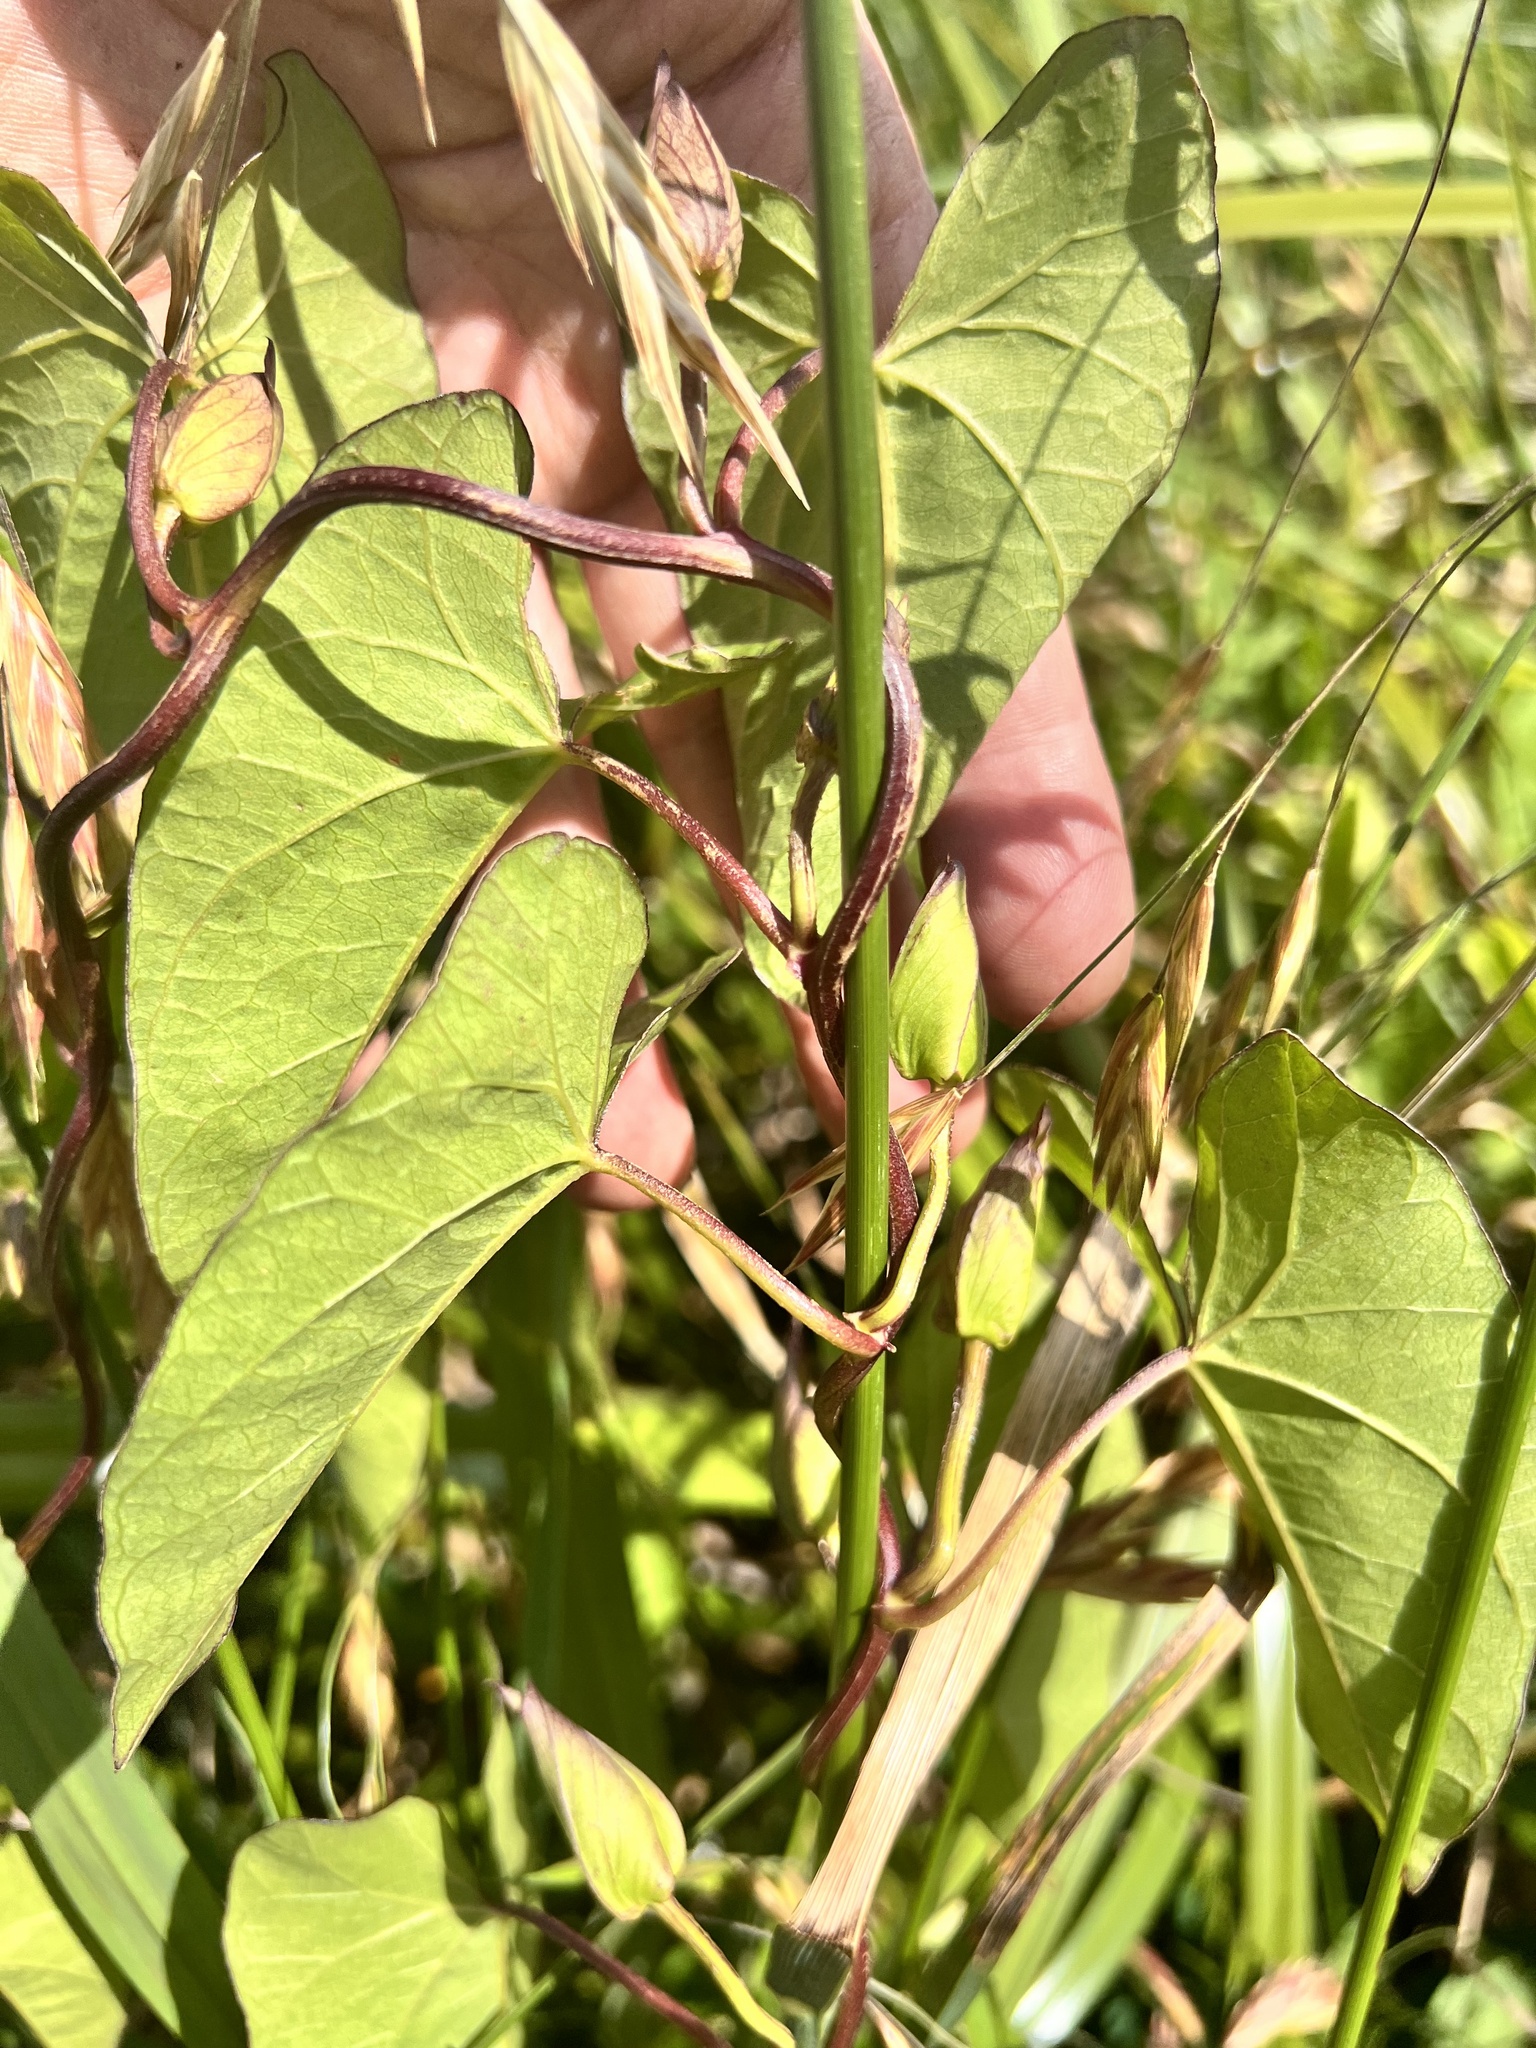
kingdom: Plantae
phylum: Tracheophyta
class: Magnoliopsida
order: Solanales
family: Convolvulaceae
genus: Calystegia
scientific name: Calystegia sepium
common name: Hedge bindweed
